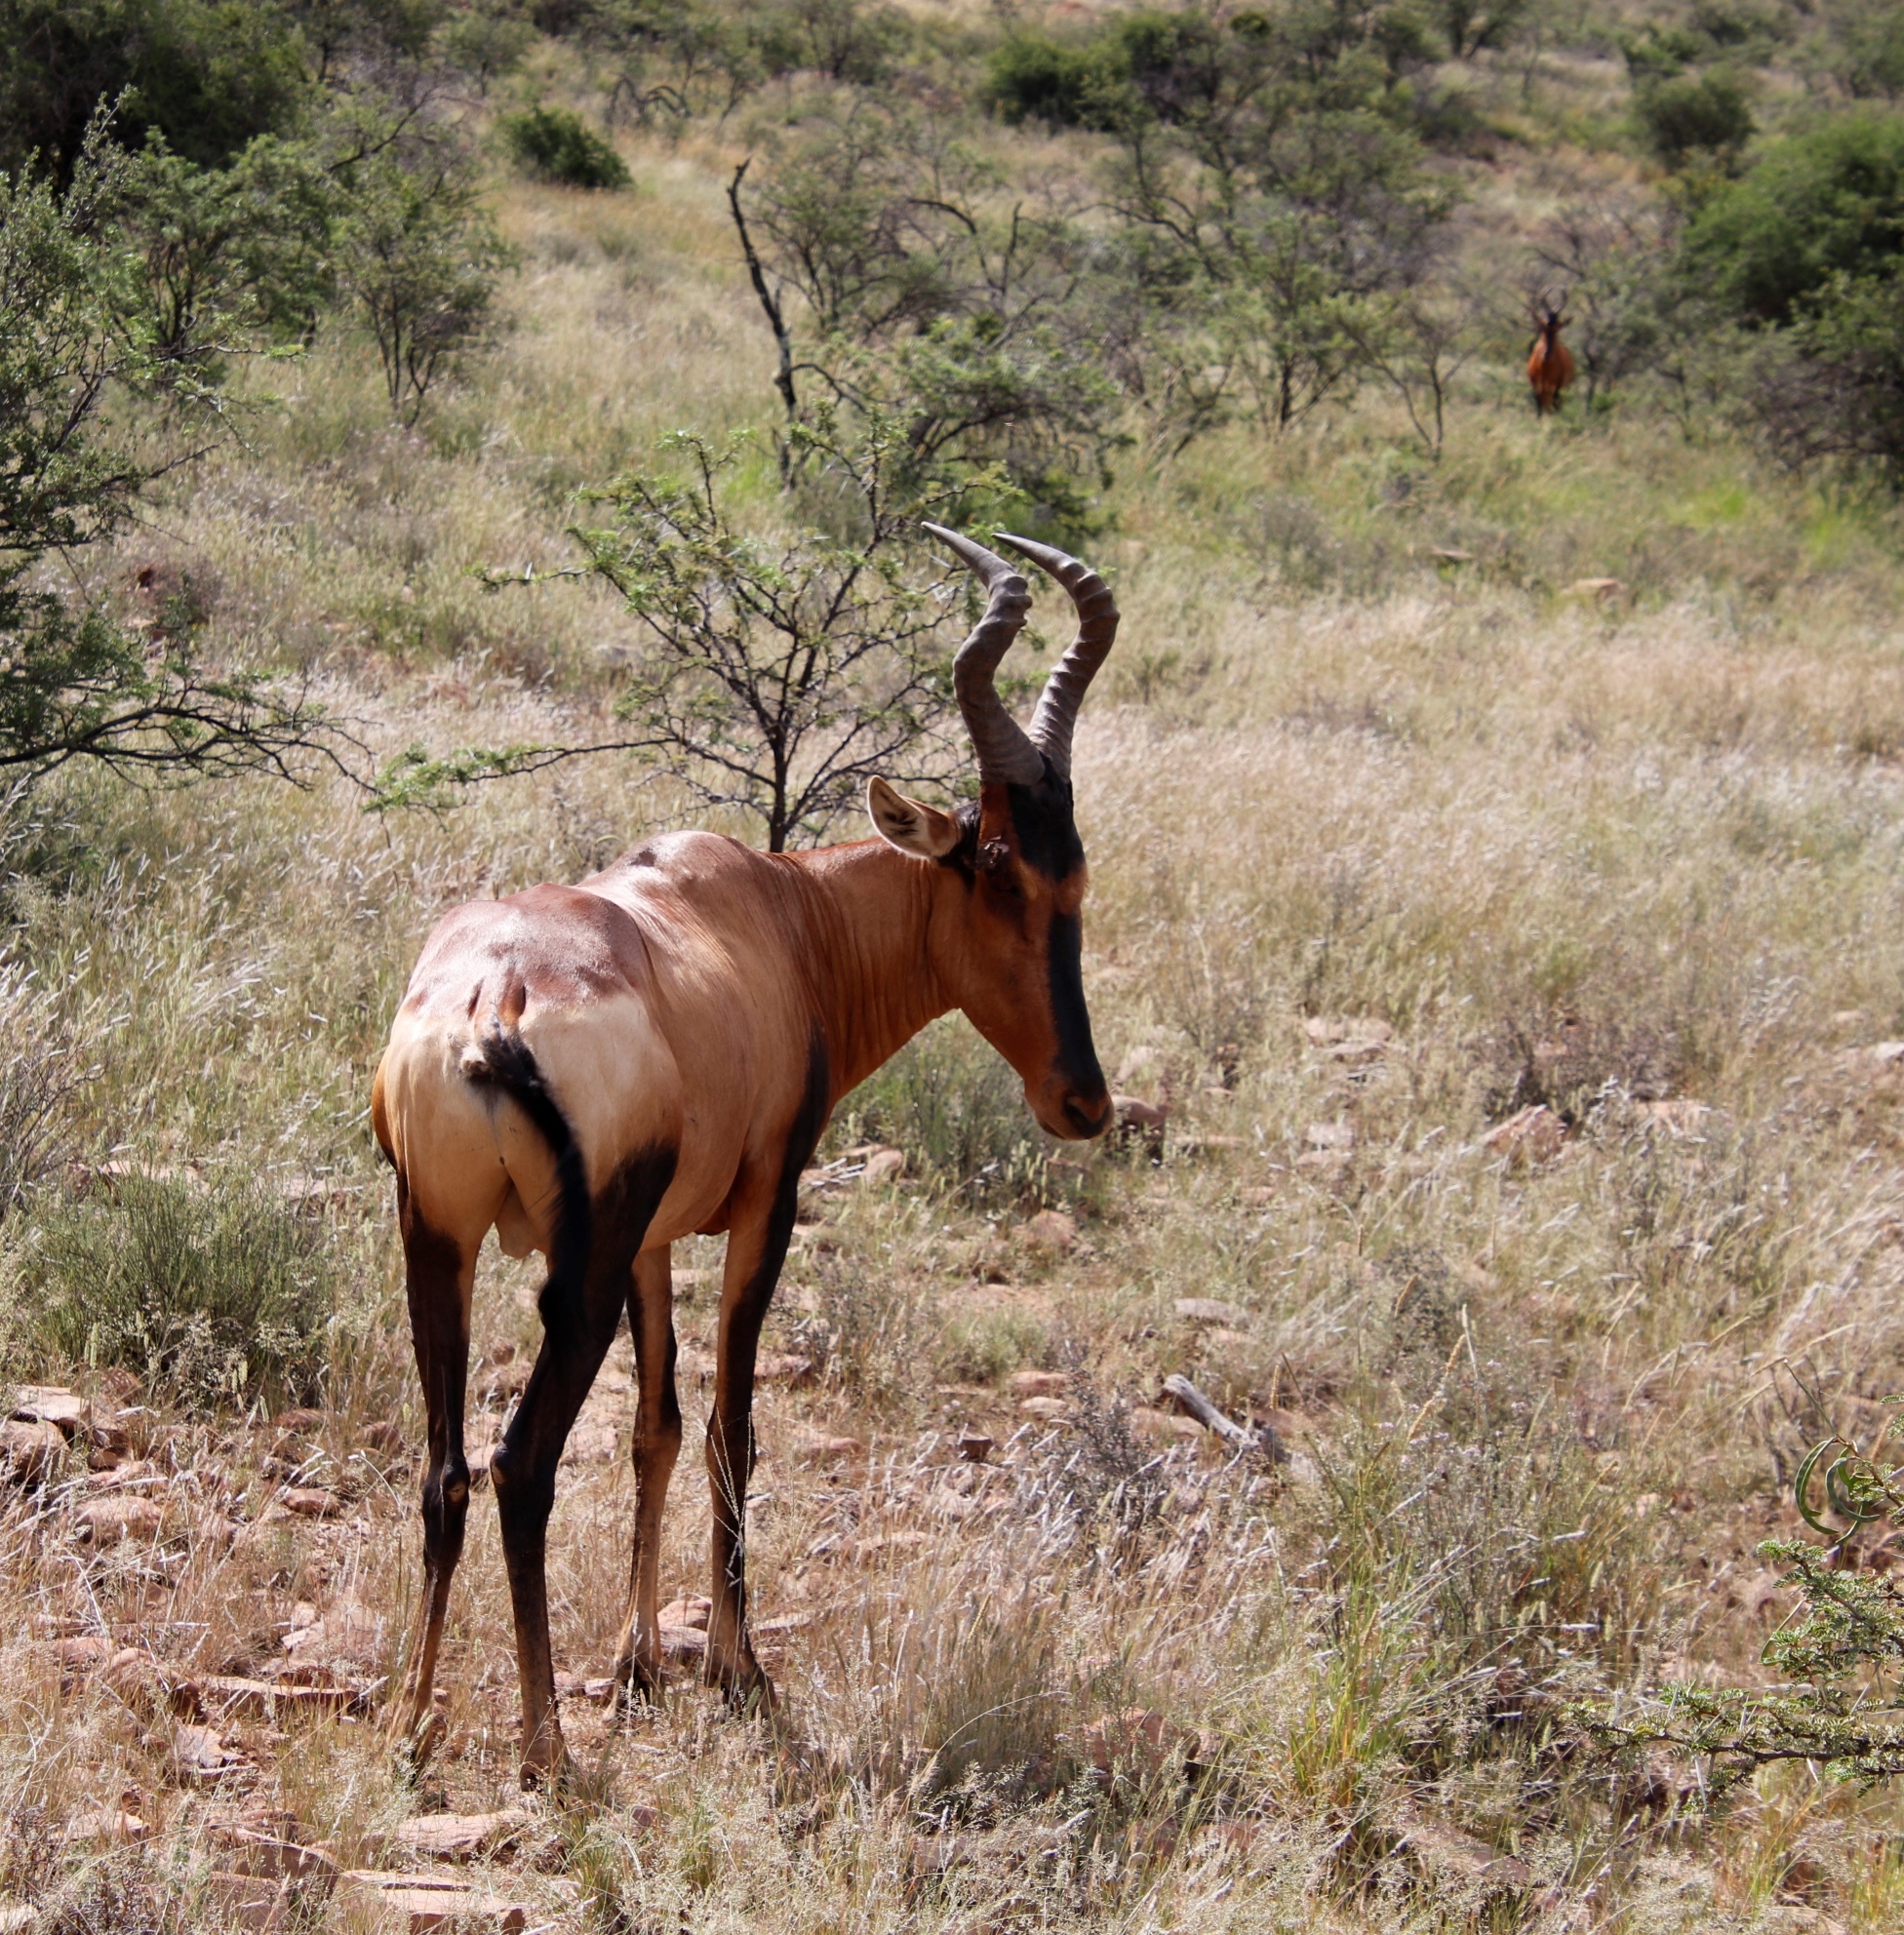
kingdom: Animalia
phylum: Chordata
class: Mammalia
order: Artiodactyla
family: Bovidae
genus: Alcelaphus
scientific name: Alcelaphus caama
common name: Red hartebeest
